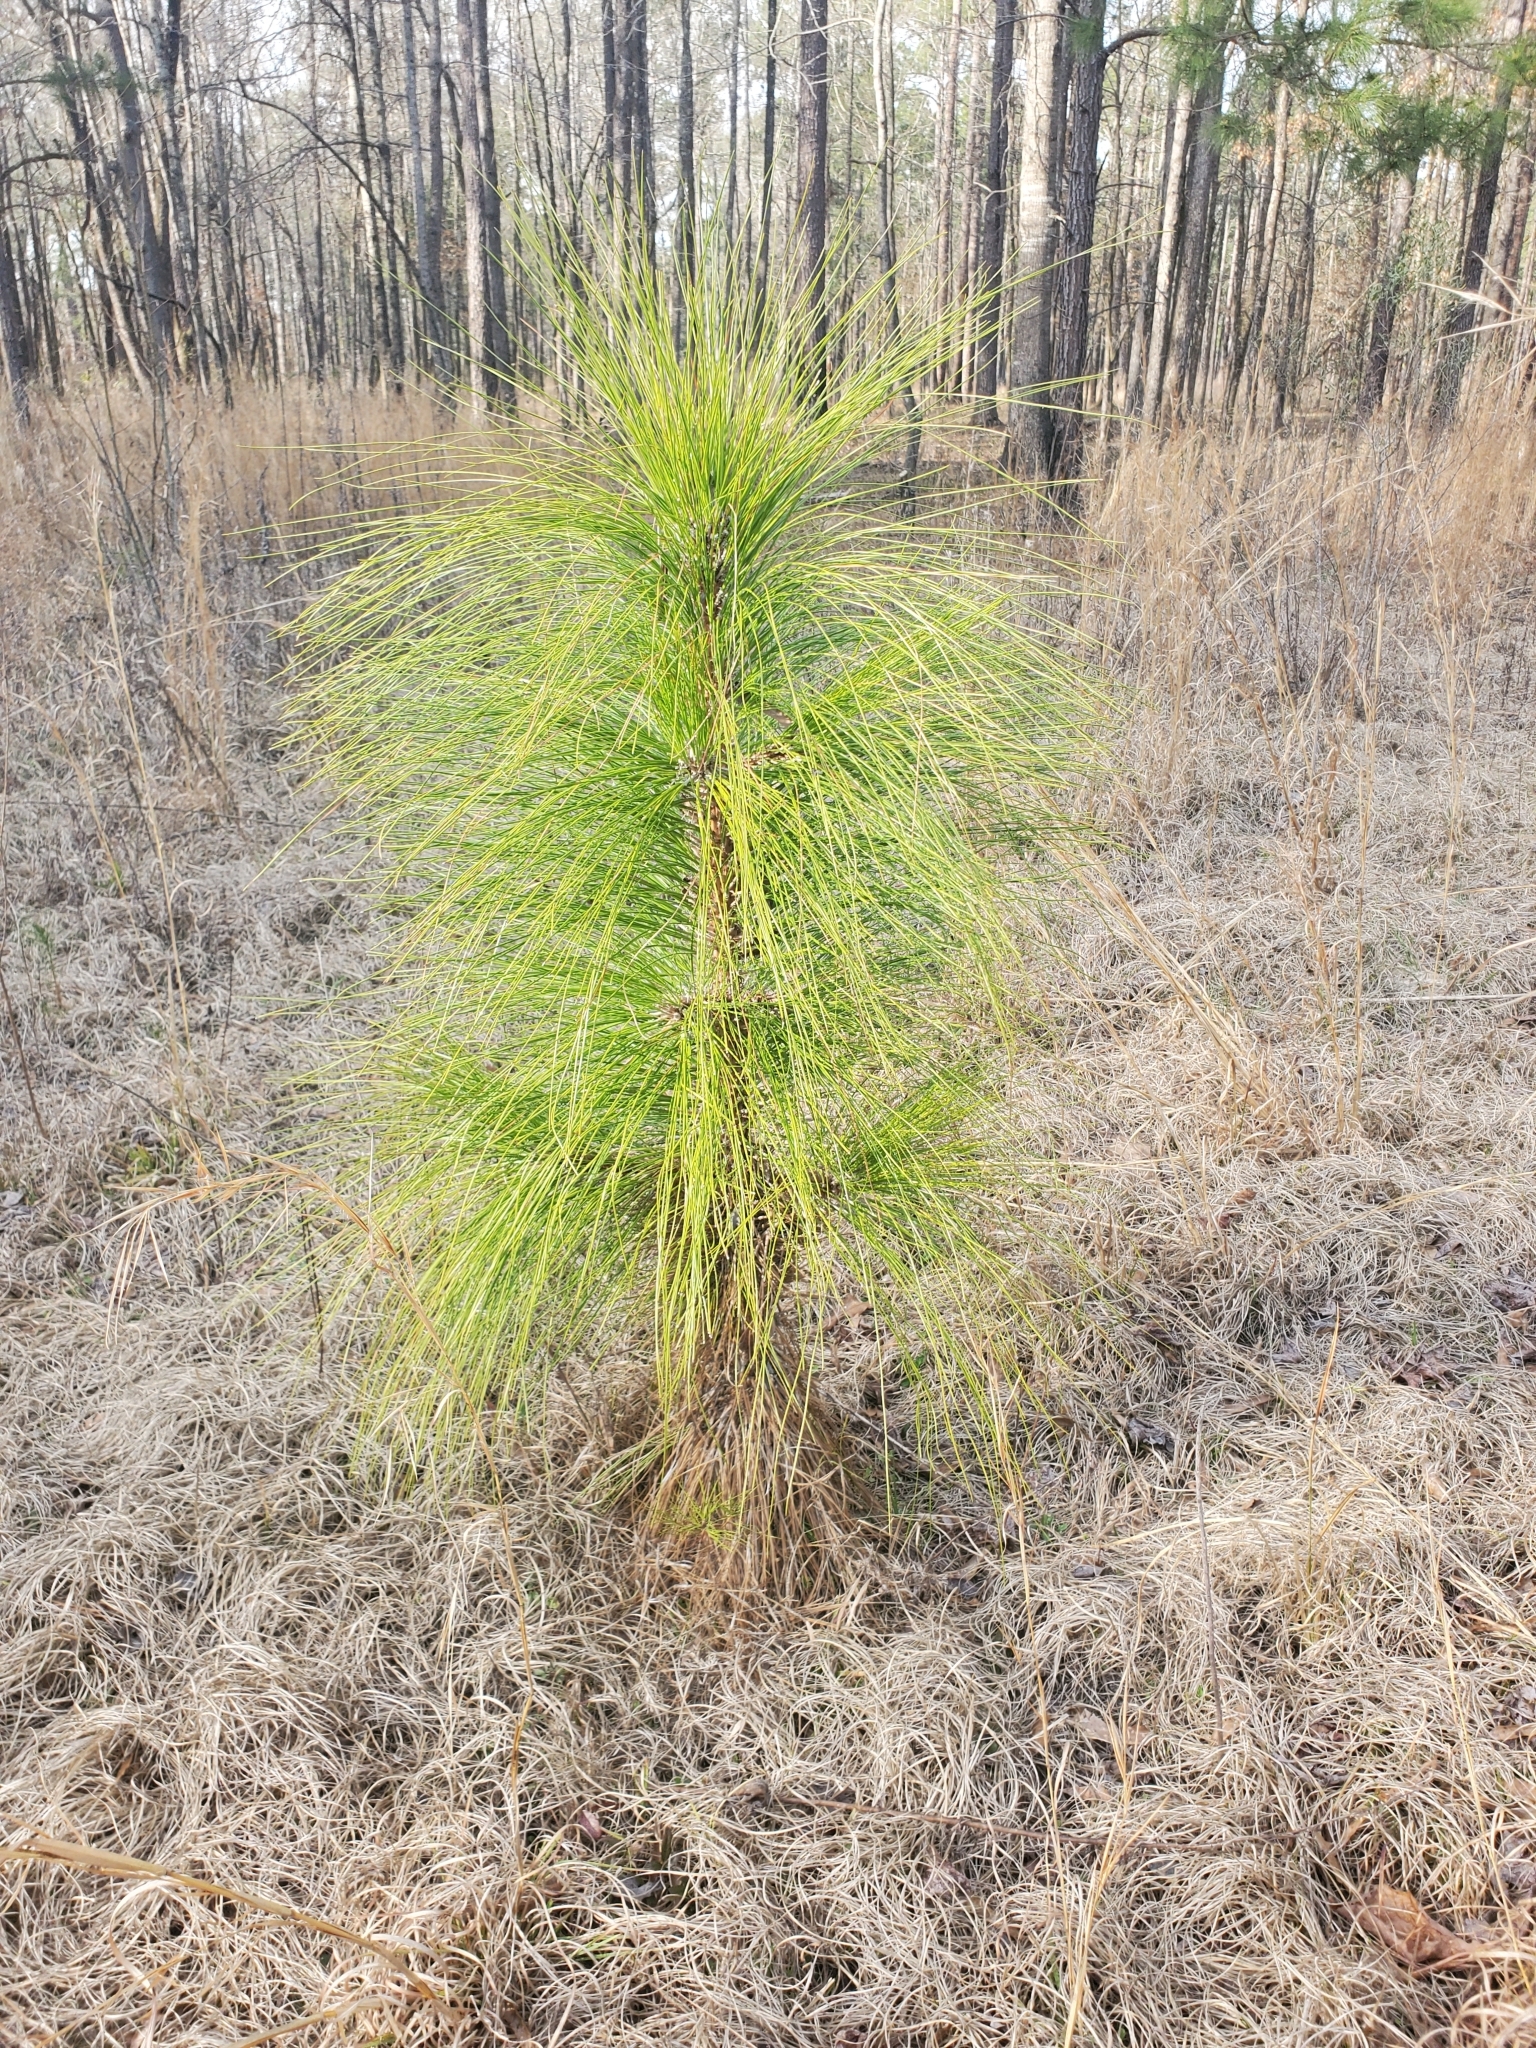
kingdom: Plantae
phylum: Tracheophyta
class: Pinopsida
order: Pinales
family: Pinaceae
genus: Pinus
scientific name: Pinus palustris
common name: Longleaf pine
